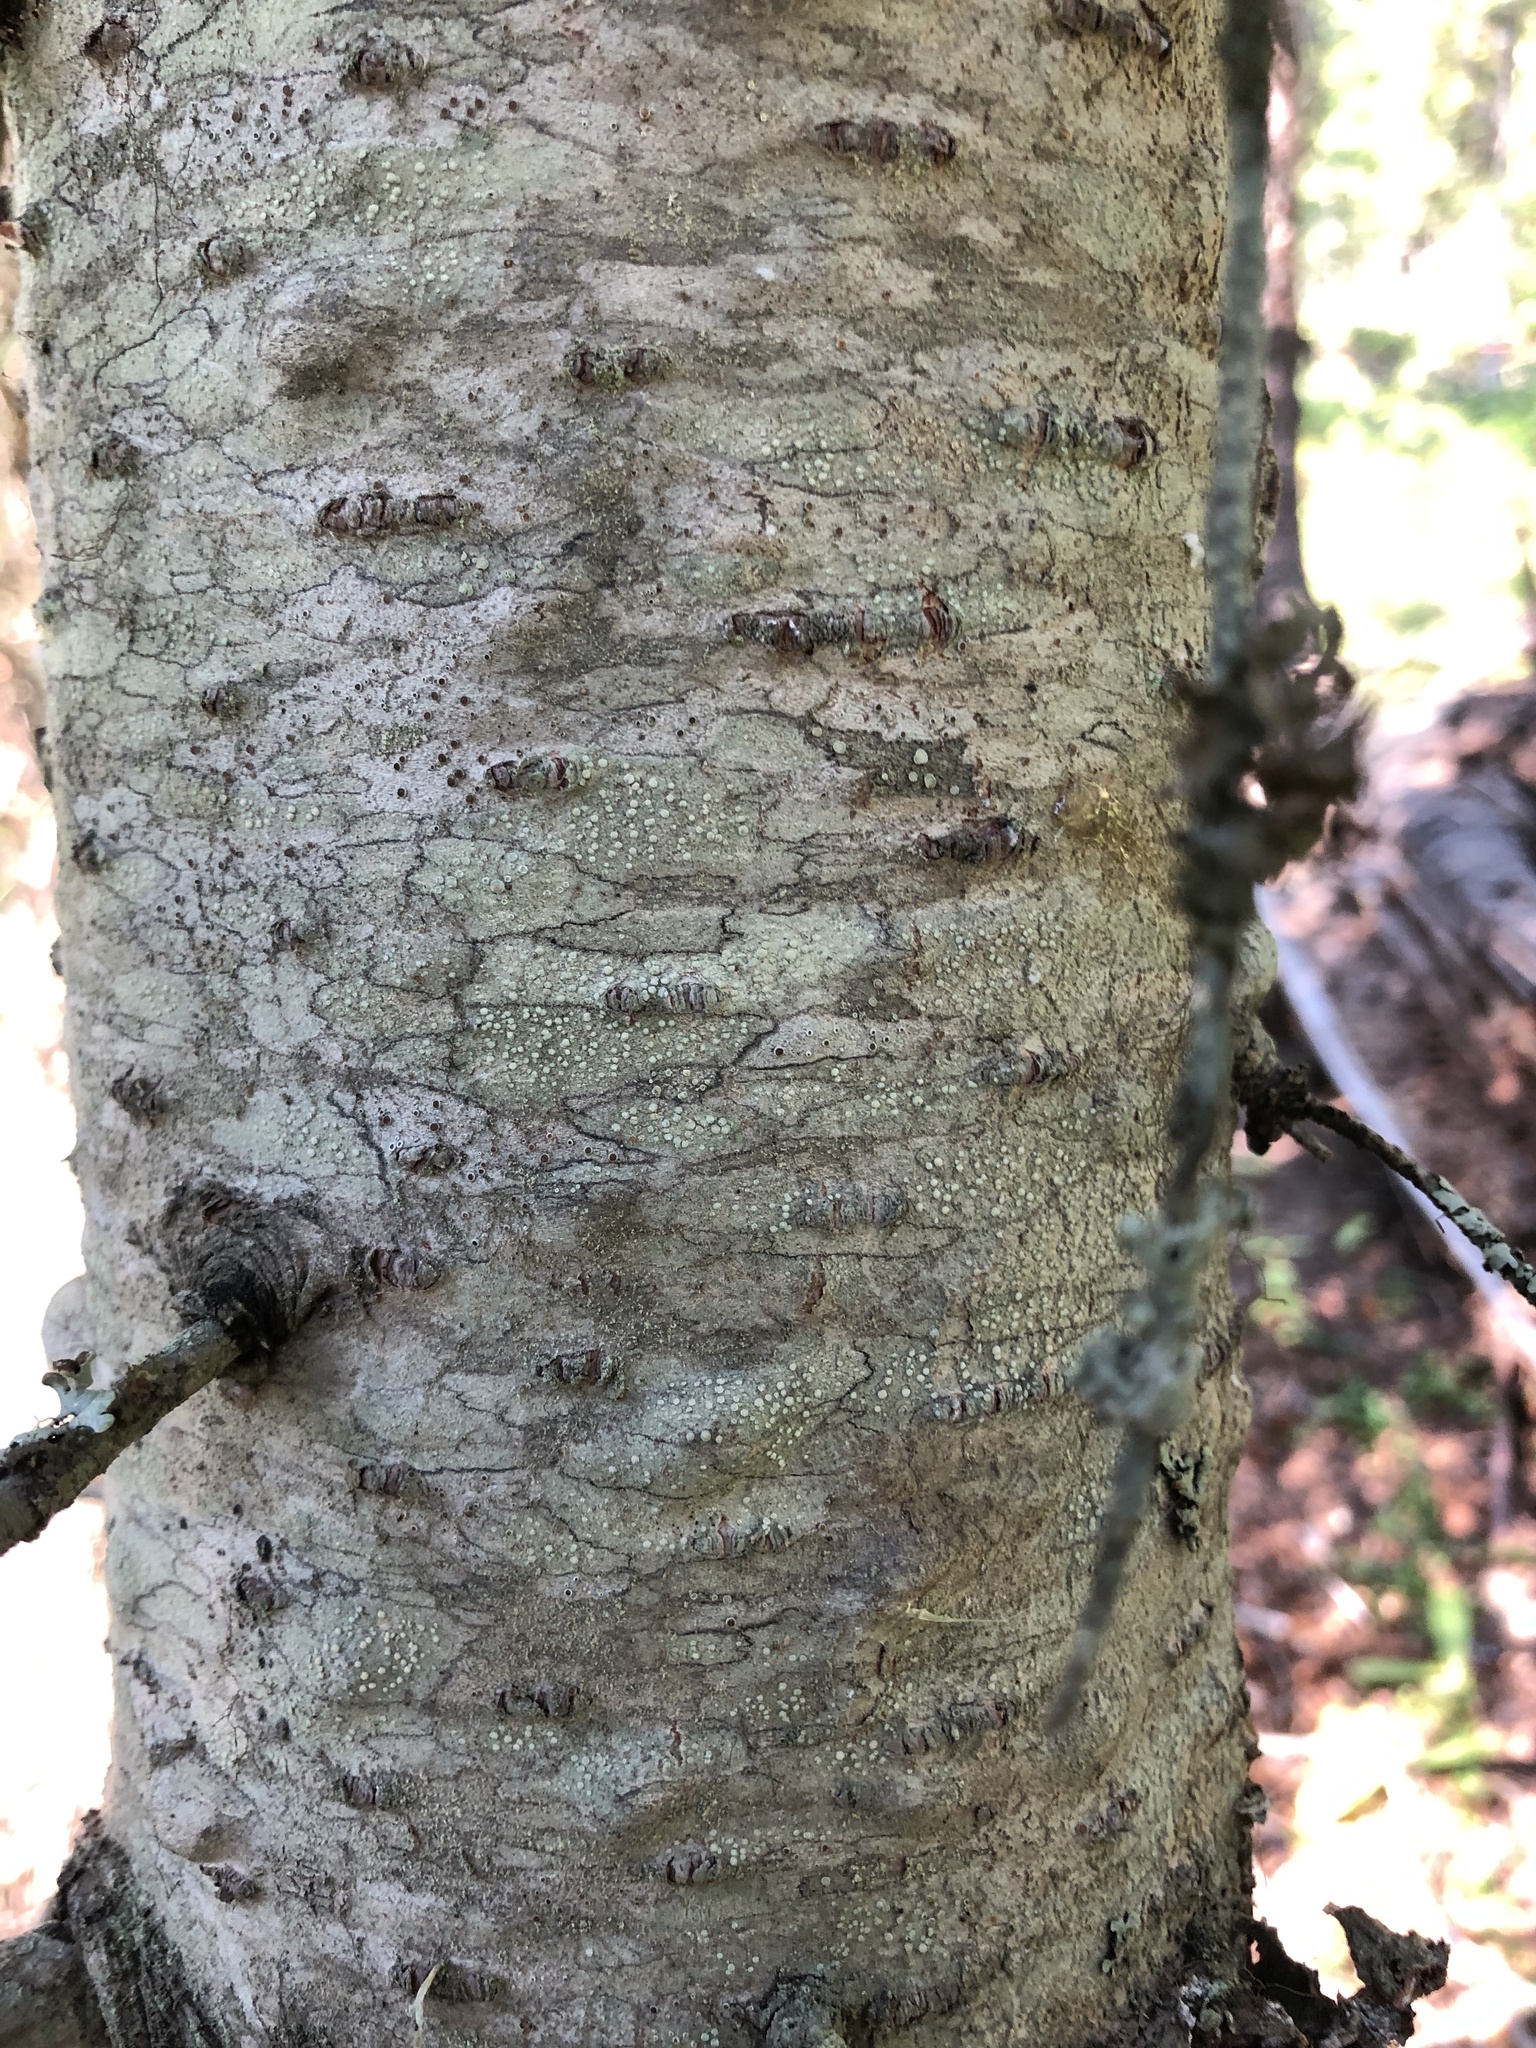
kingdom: Plantae
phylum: Tracheophyta
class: Pinopsida
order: Pinales
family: Pinaceae
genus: Abies
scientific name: Abies lasiocarpa
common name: Subalpine fir
